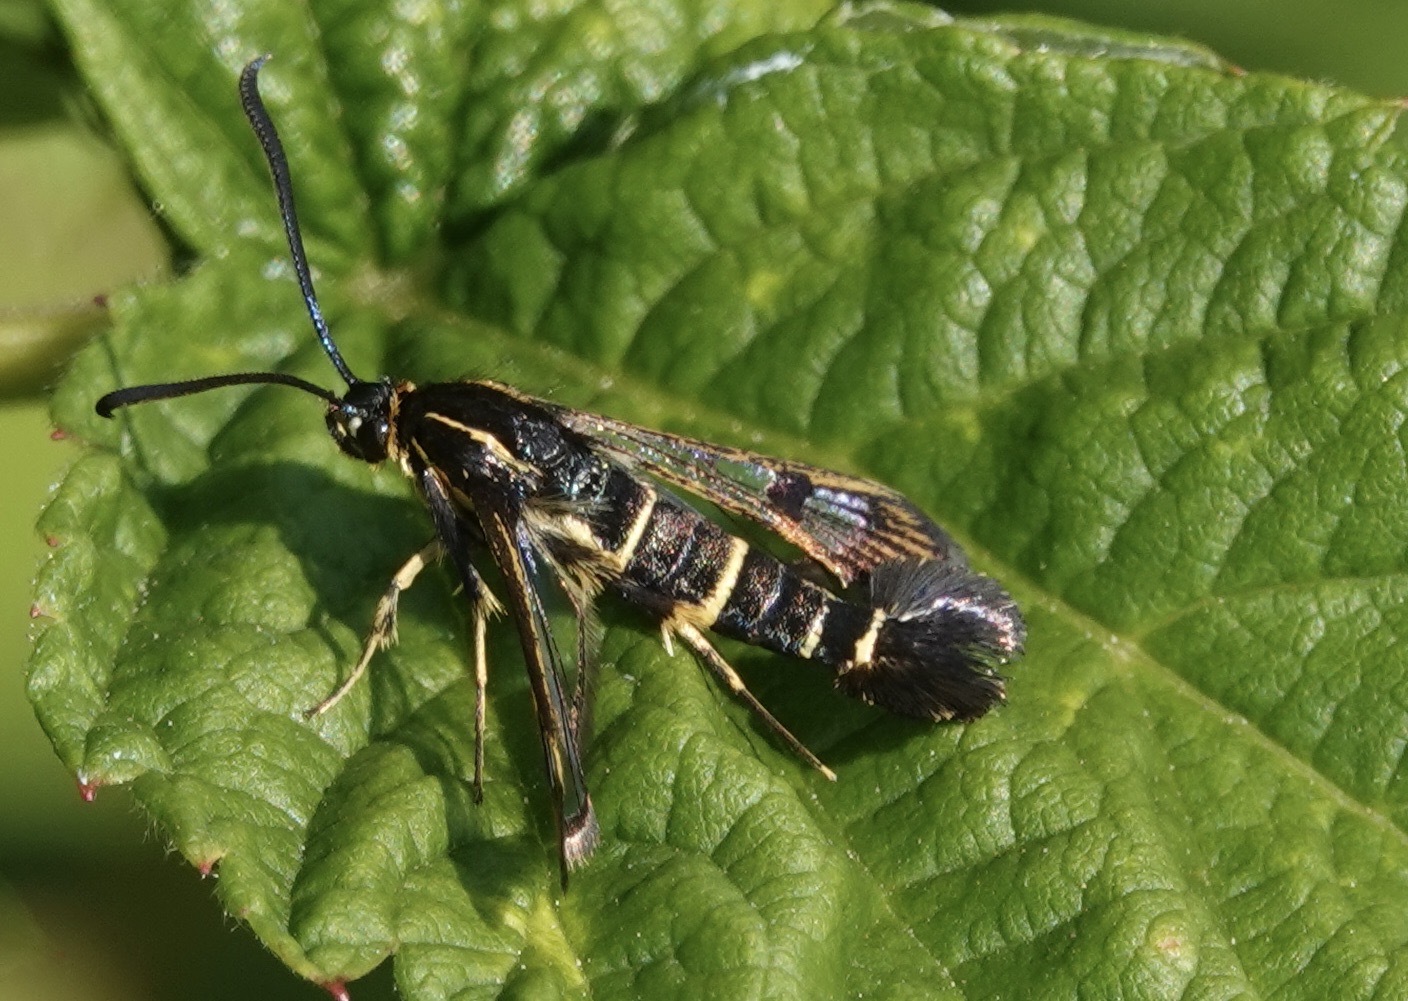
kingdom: Animalia
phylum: Arthropoda
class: Insecta
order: Lepidoptera
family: Sesiidae
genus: Synanthedon
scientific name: Synanthedon tipuliformis
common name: Currant clearwing
